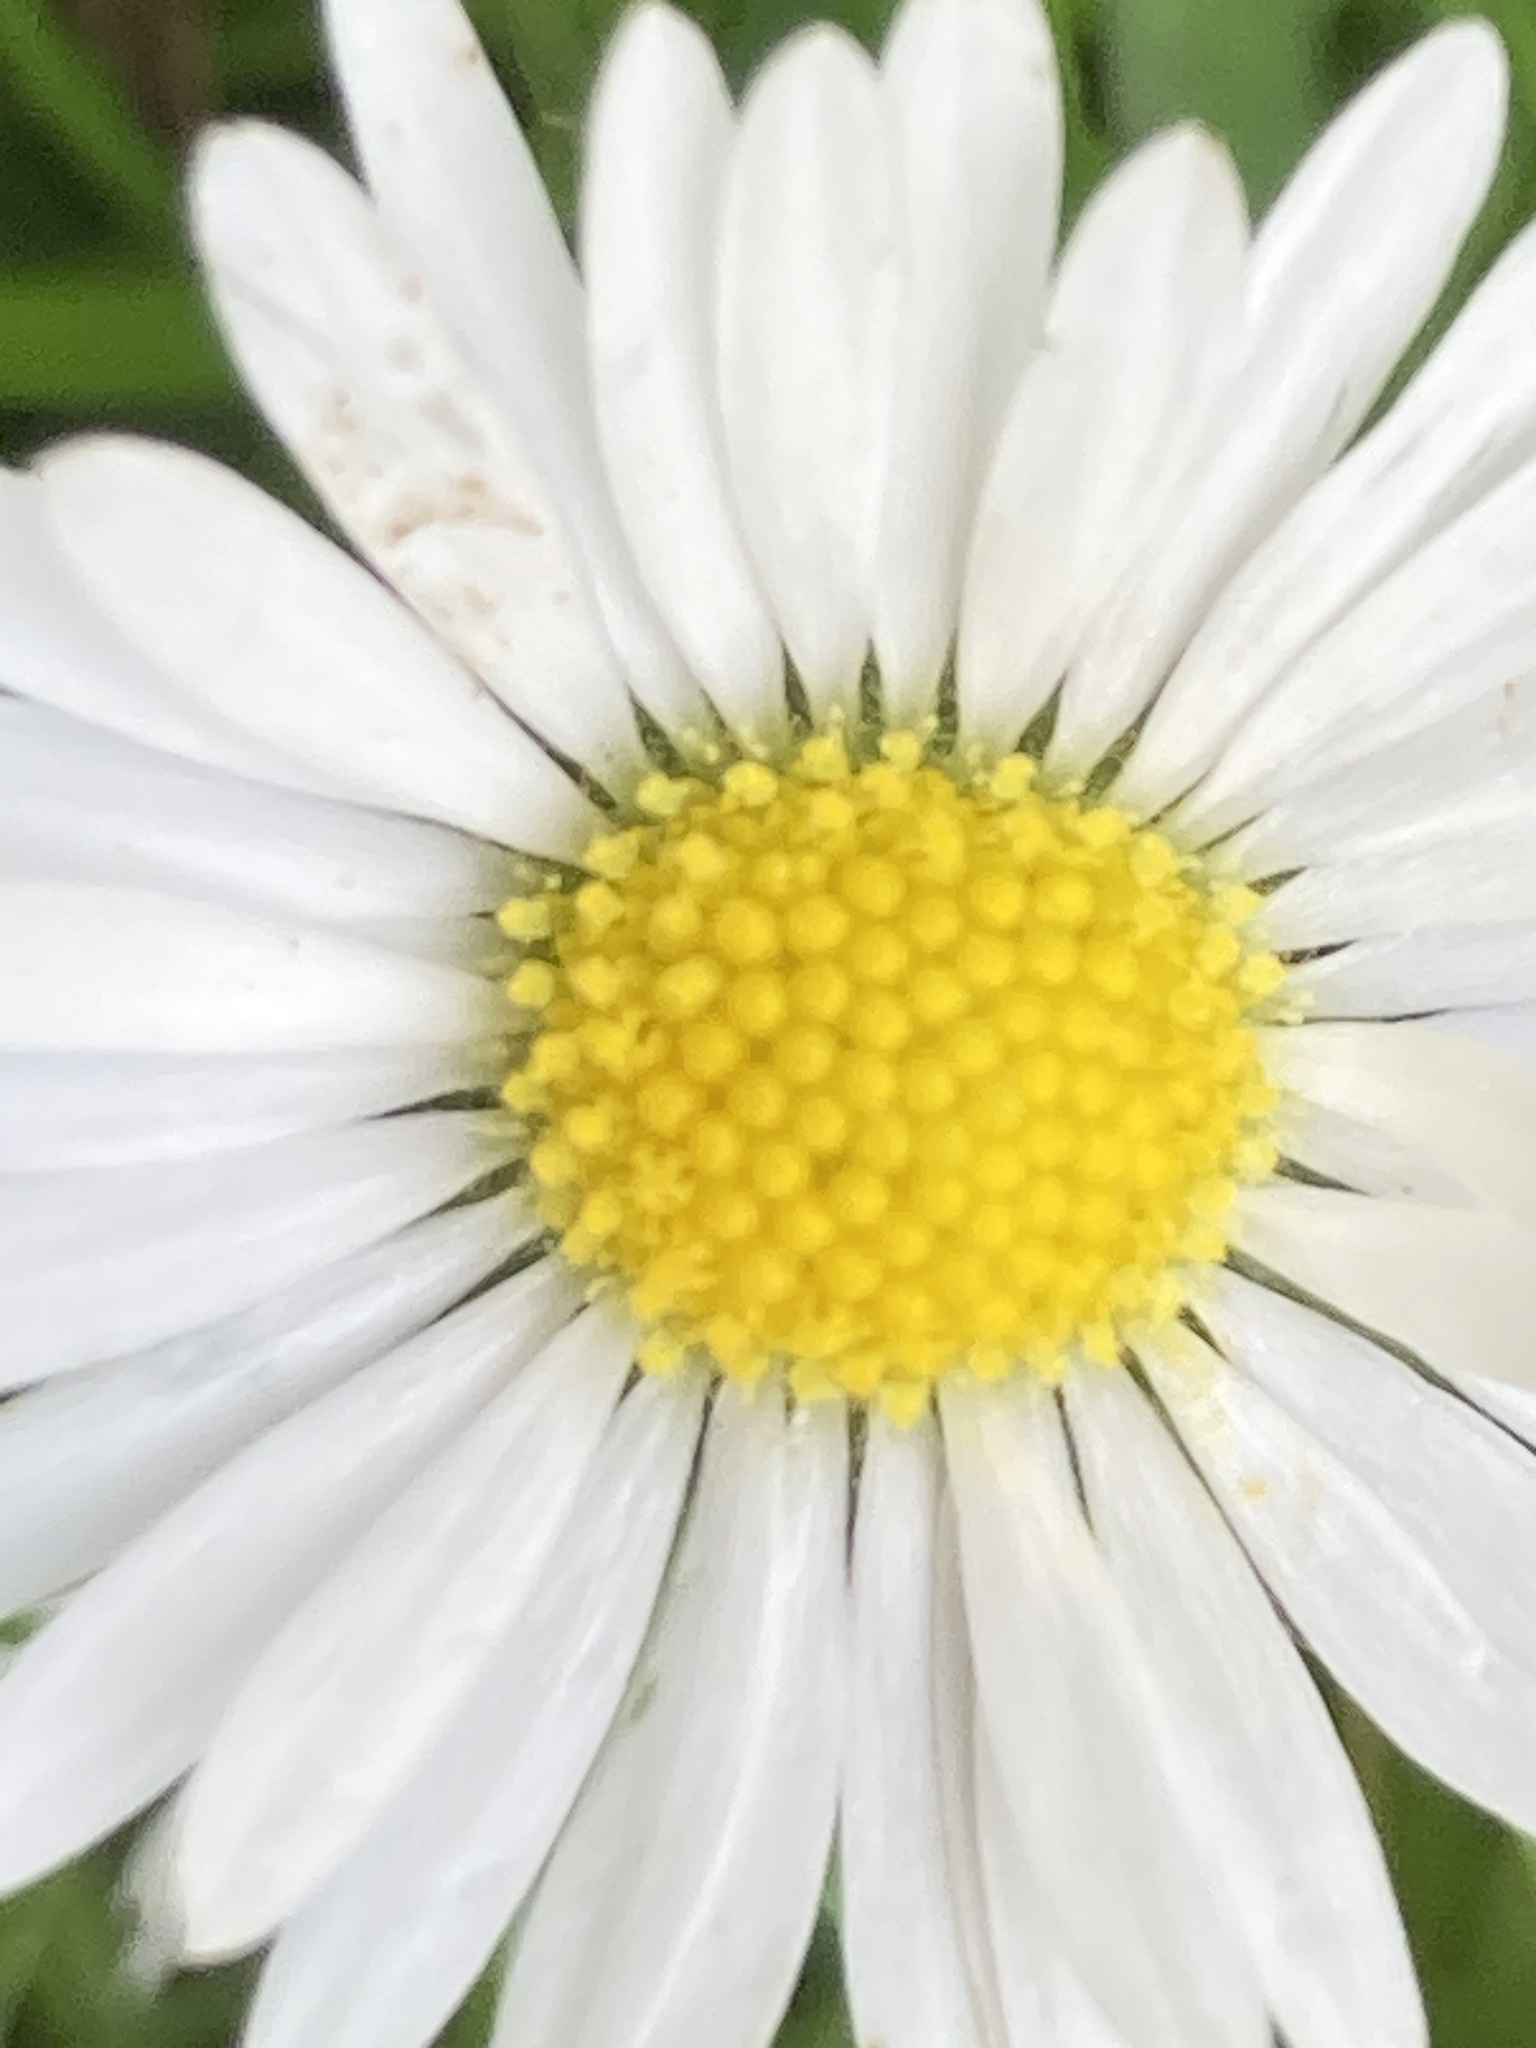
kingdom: Plantae
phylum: Tracheophyta
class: Magnoliopsida
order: Asterales
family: Asteraceae
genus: Bellis
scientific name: Bellis perennis
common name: Lawndaisy
